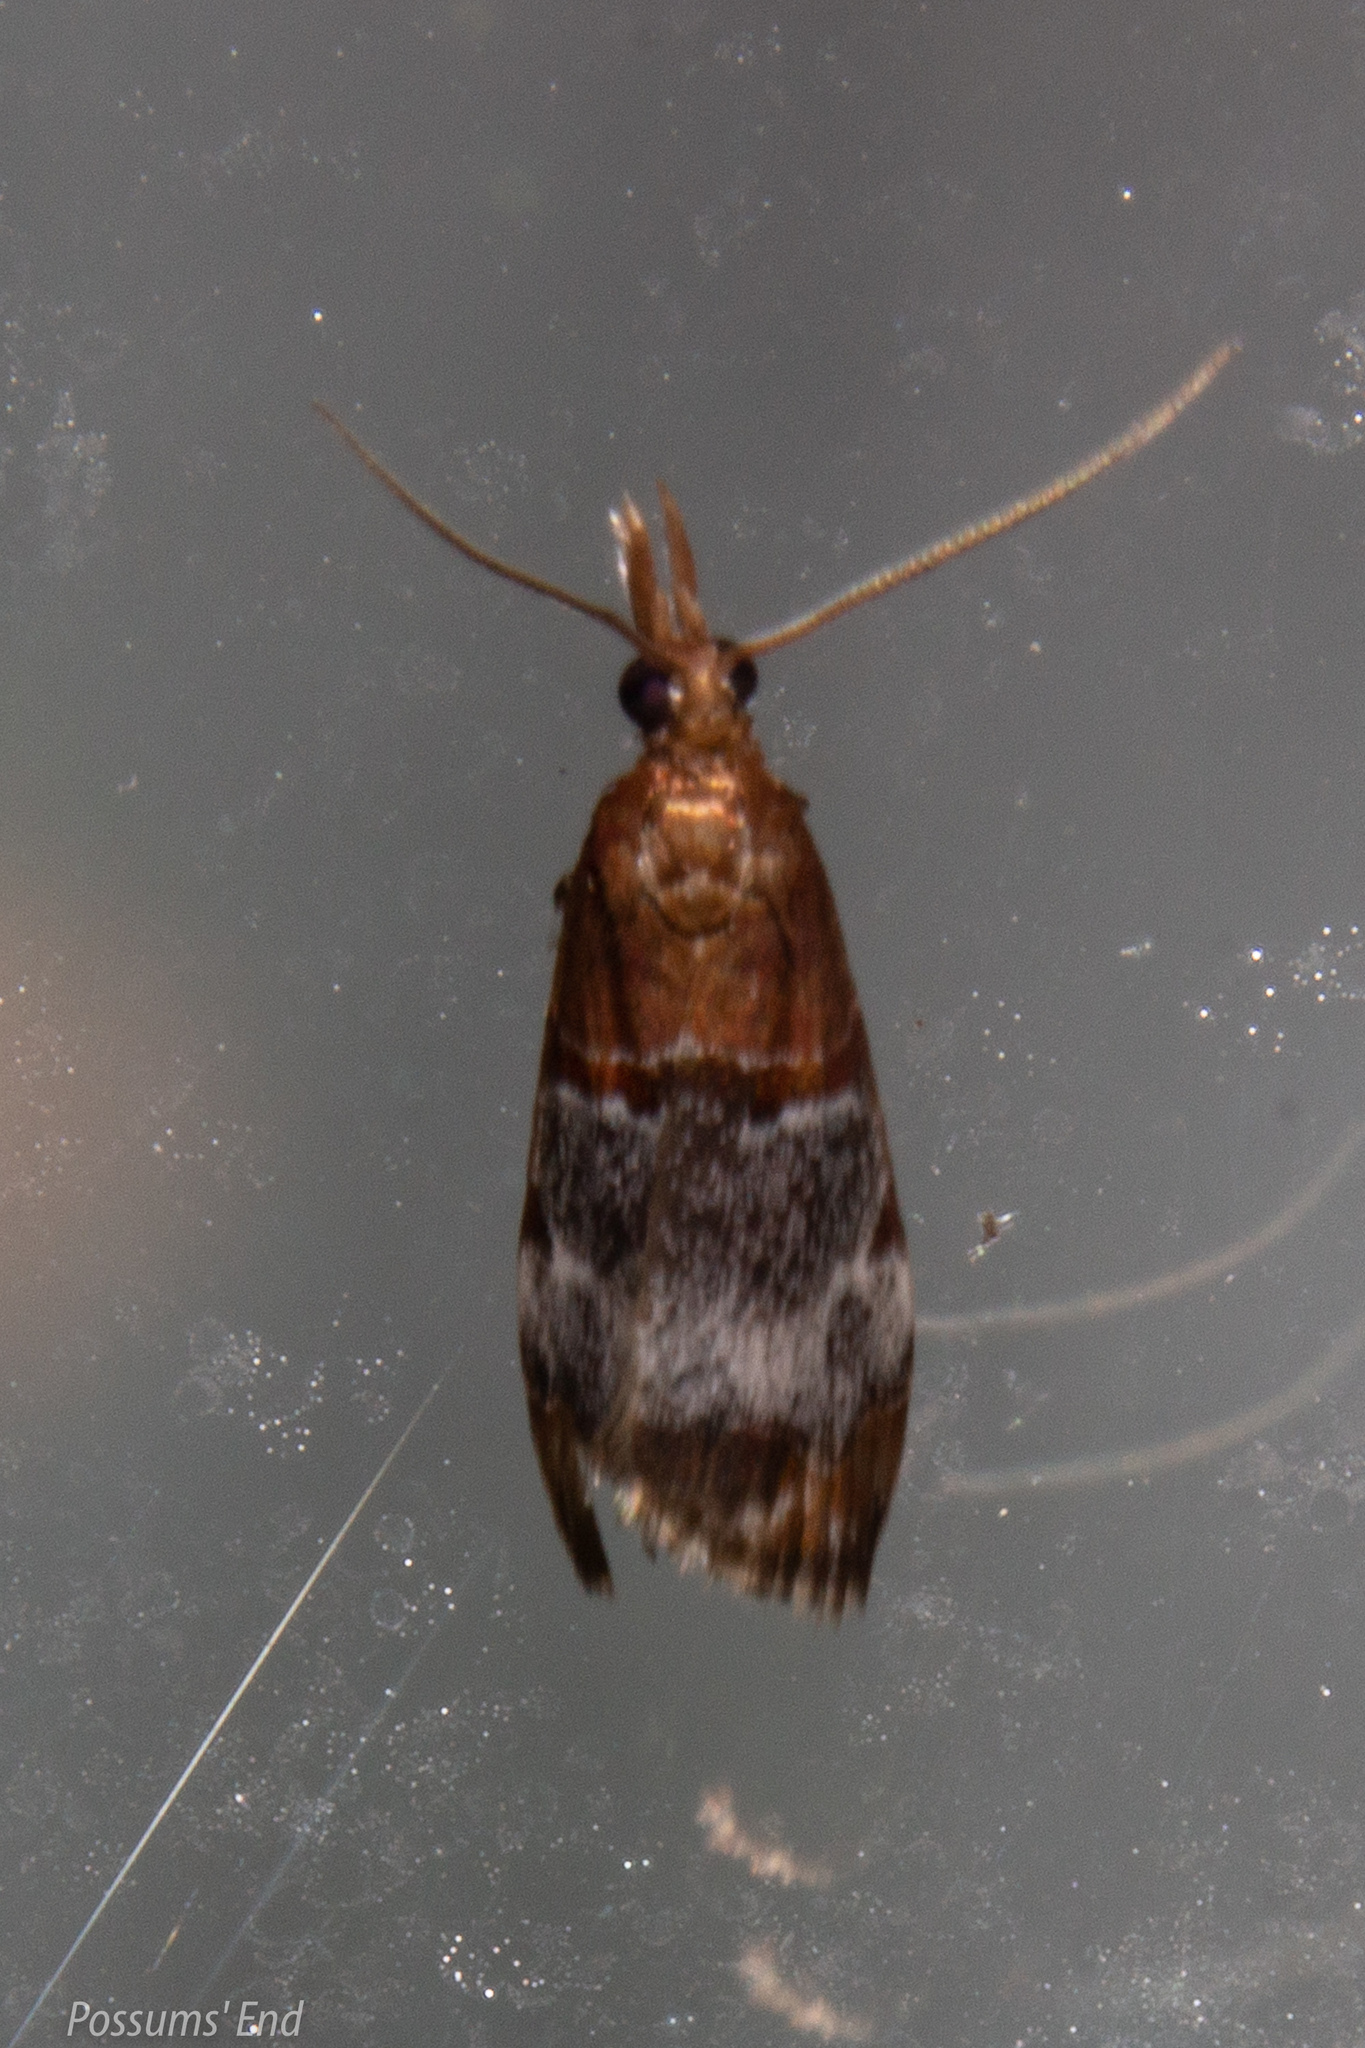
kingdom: Animalia
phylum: Arthropoda
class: Insecta
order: Lepidoptera
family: Crambidae
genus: Antiscopa
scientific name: Antiscopa epicomia
